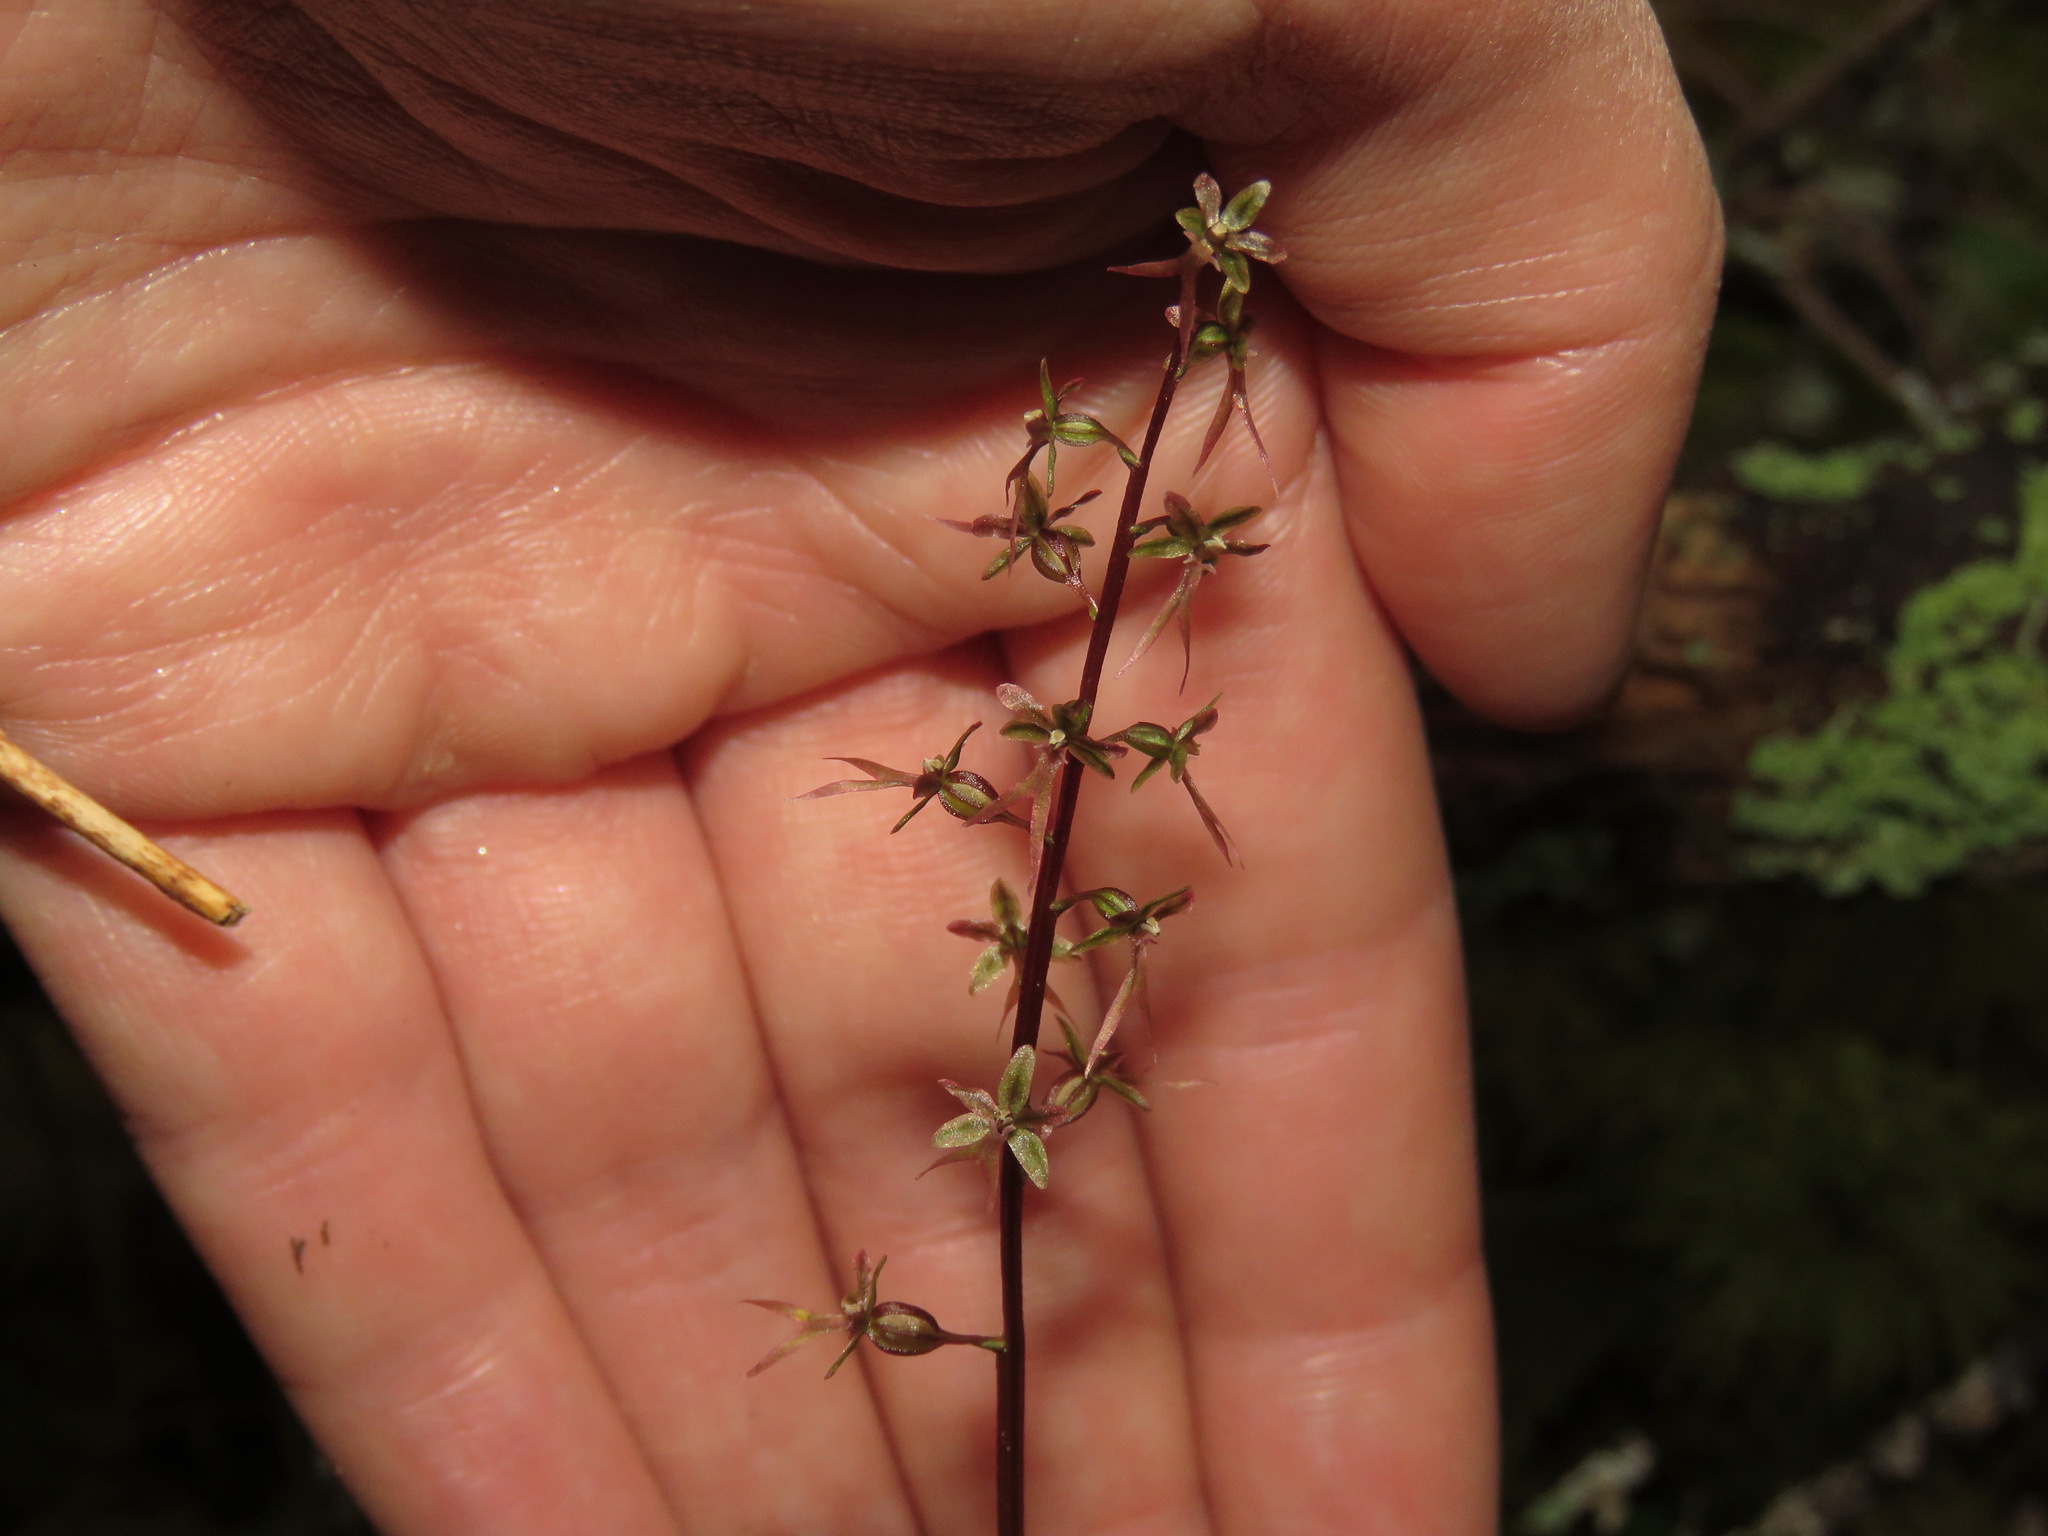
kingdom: Plantae
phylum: Tracheophyta
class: Liliopsida
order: Asparagales
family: Orchidaceae
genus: Neottia
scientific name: Neottia cordata
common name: Lesser twayblade
